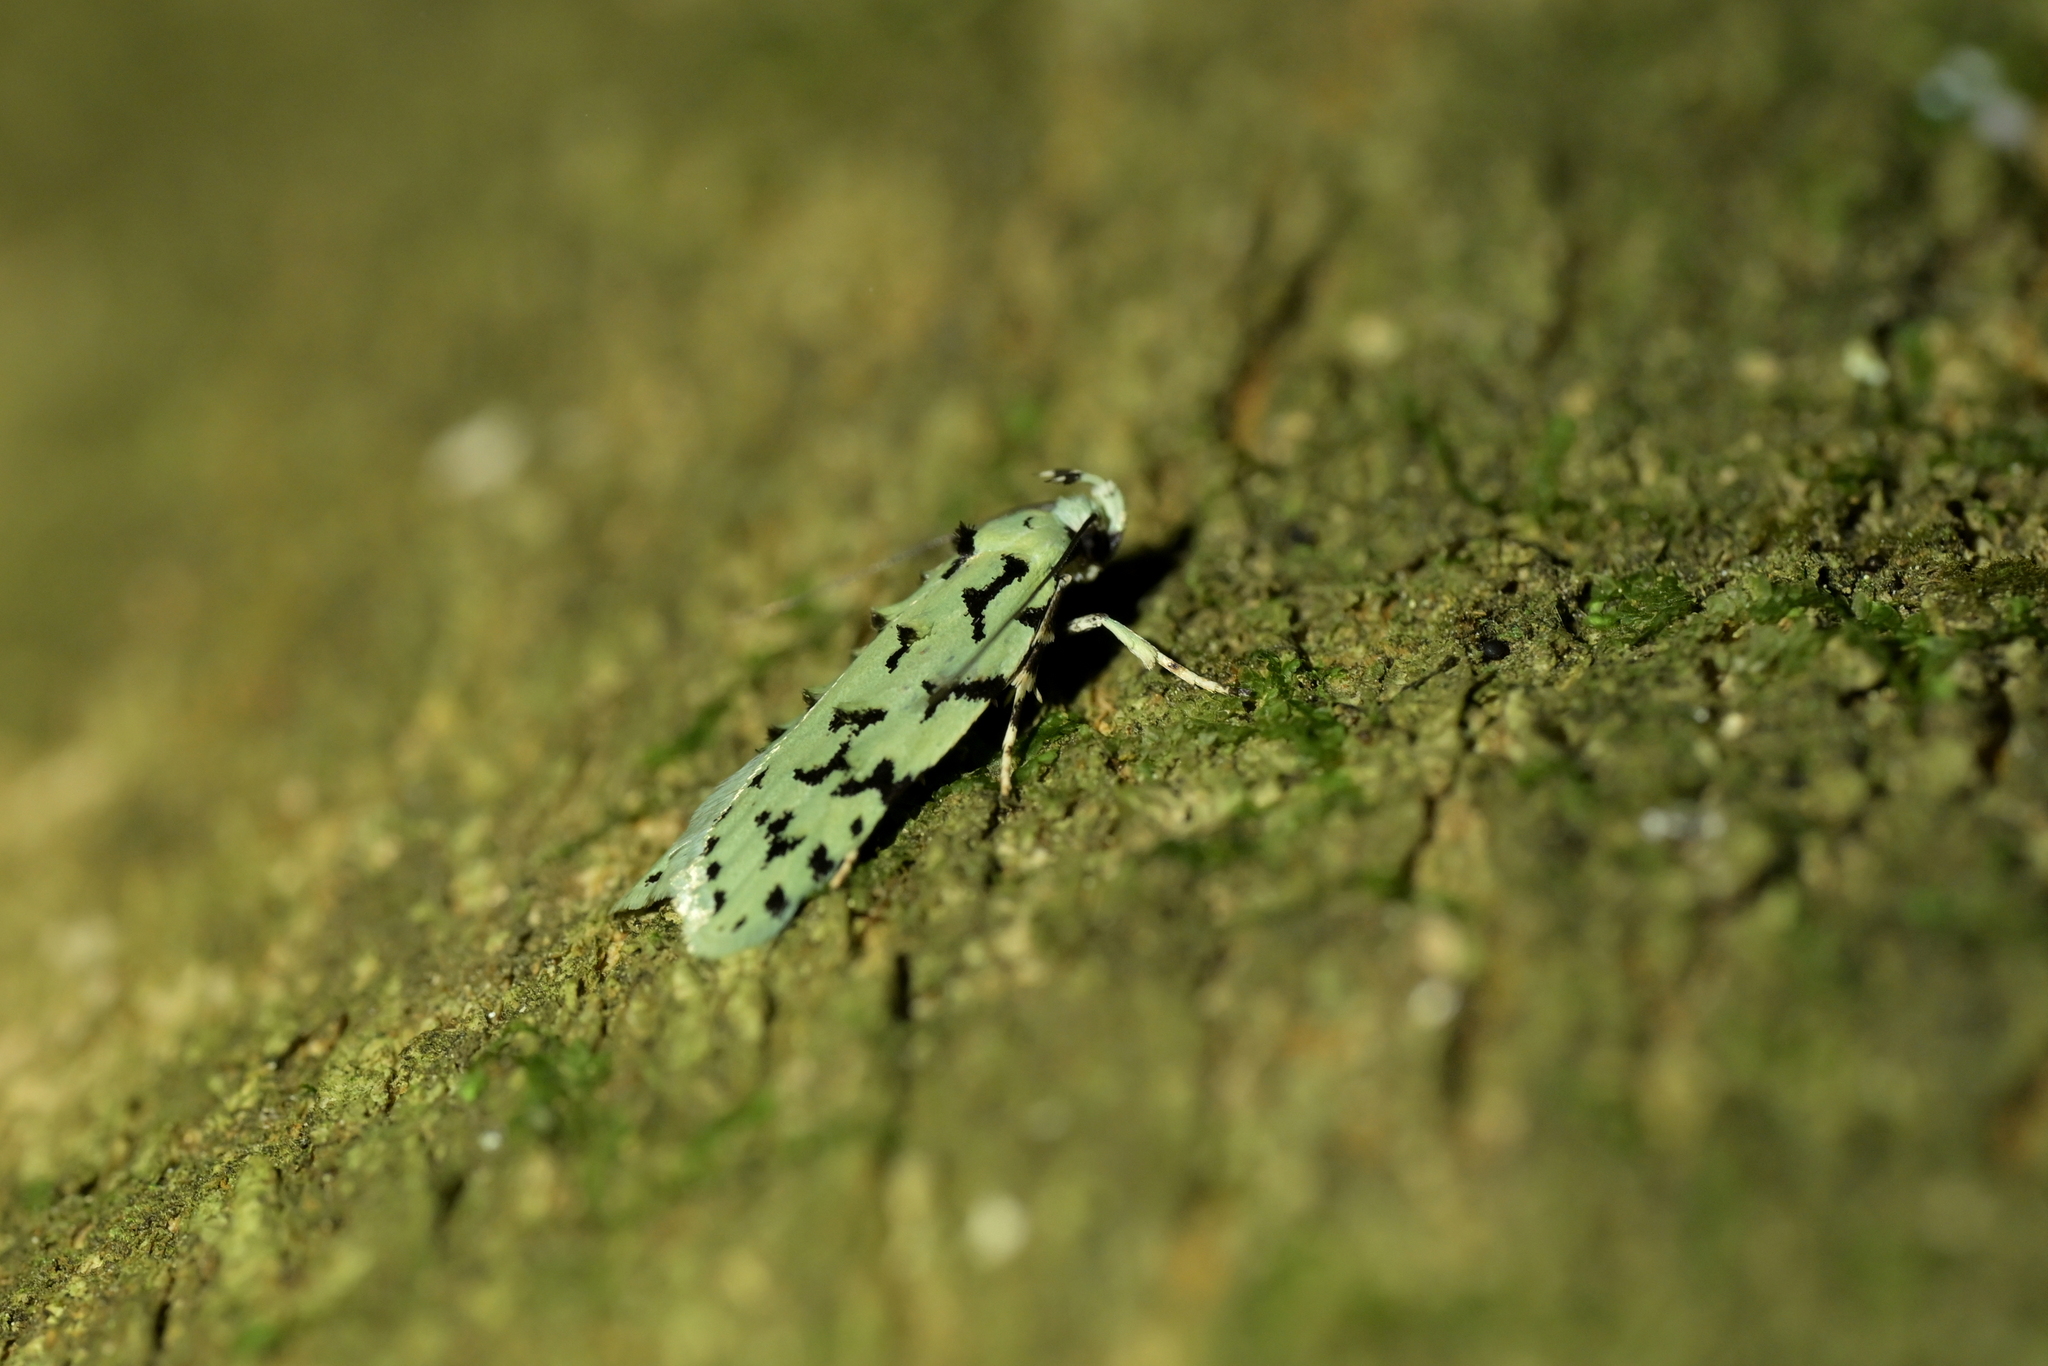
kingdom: Animalia
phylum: Arthropoda
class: Insecta
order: Lepidoptera
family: Oecophoridae
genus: Izatha
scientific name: Izatha huttoni
